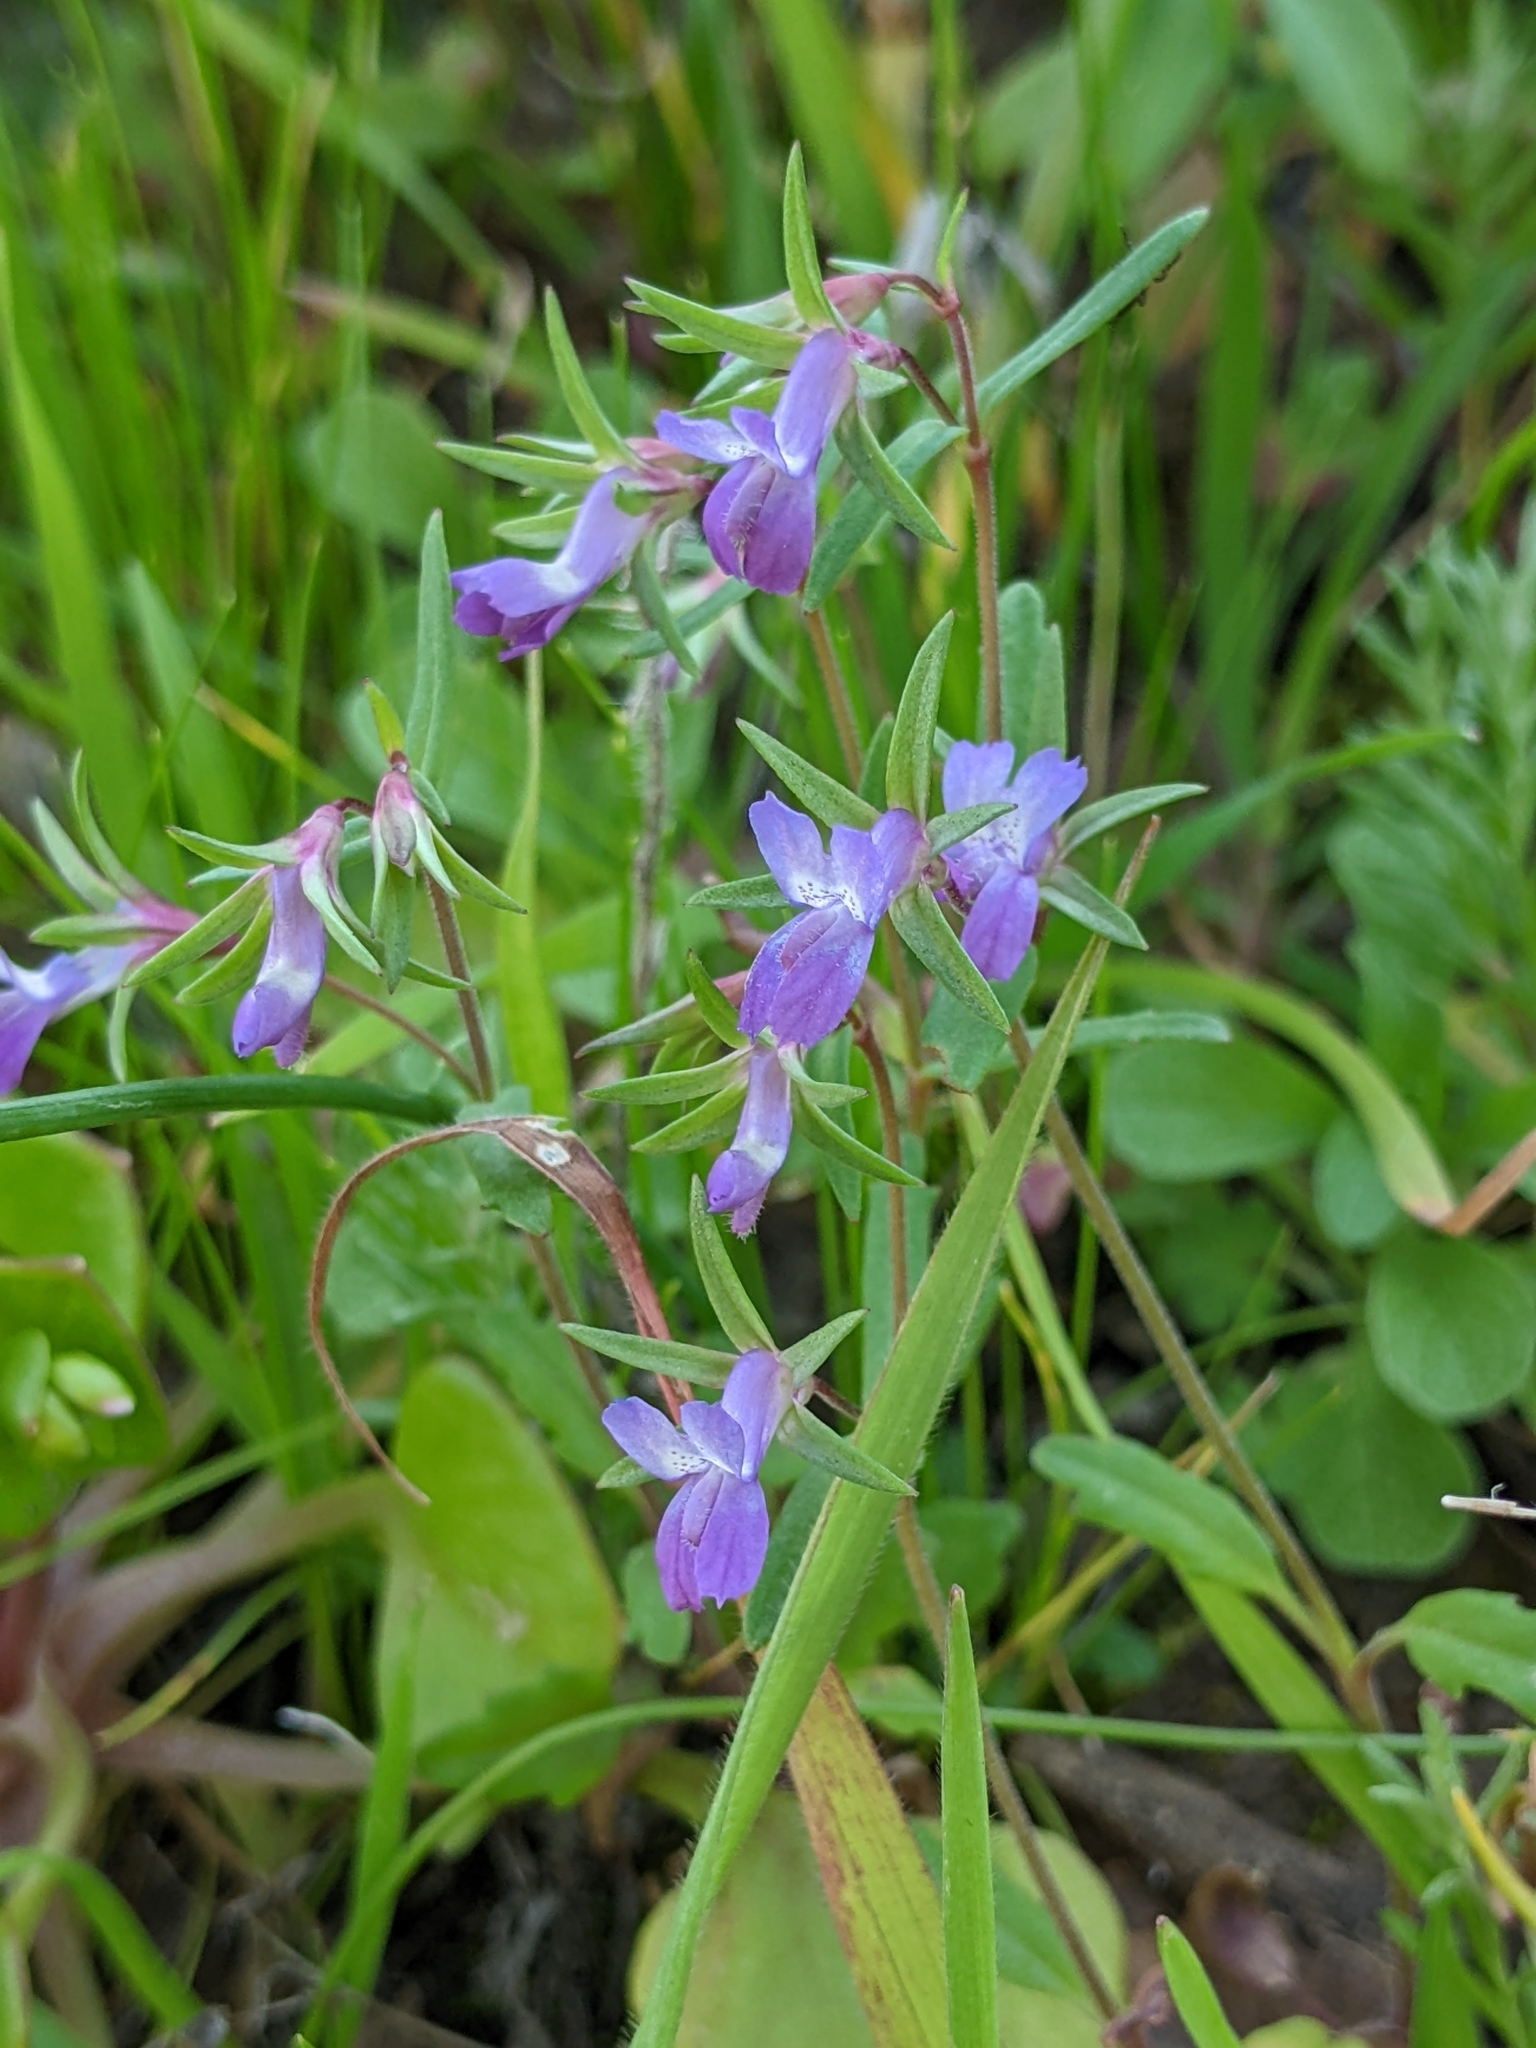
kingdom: Plantae
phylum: Tracheophyta
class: Magnoliopsida
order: Lamiales
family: Plantaginaceae
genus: Collinsia
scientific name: Collinsia sparsiflora
